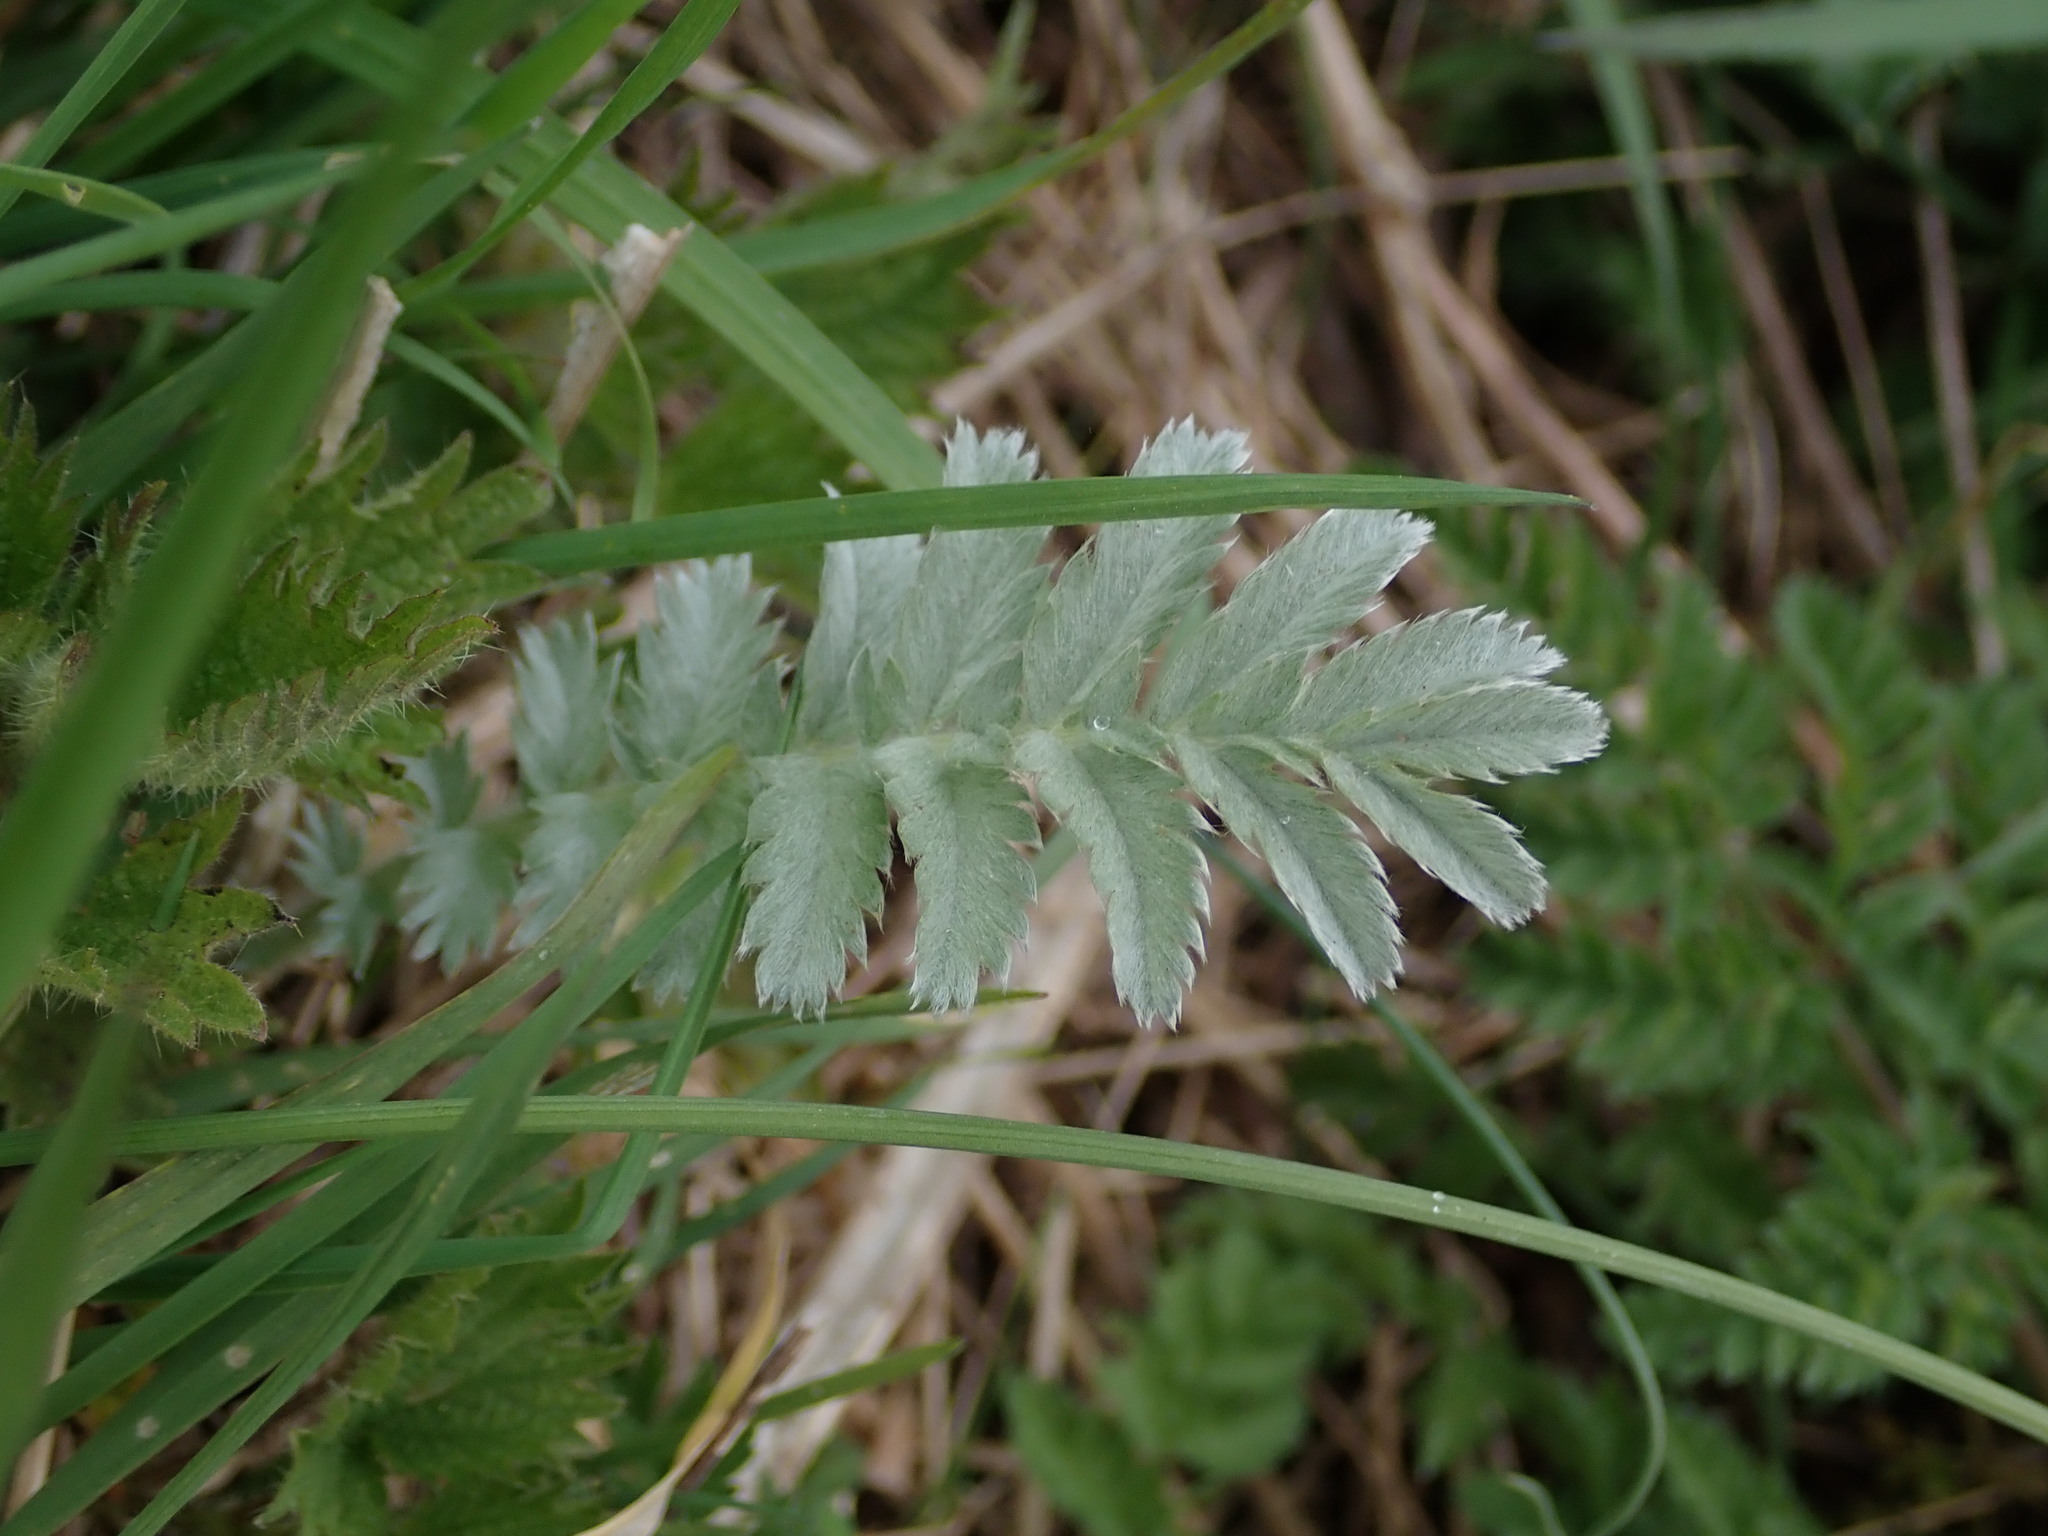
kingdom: Plantae
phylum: Tracheophyta
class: Magnoliopsida
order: Rosales
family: Rosaceae
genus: Argentina
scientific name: Argentina anserina
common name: Common silverweed
